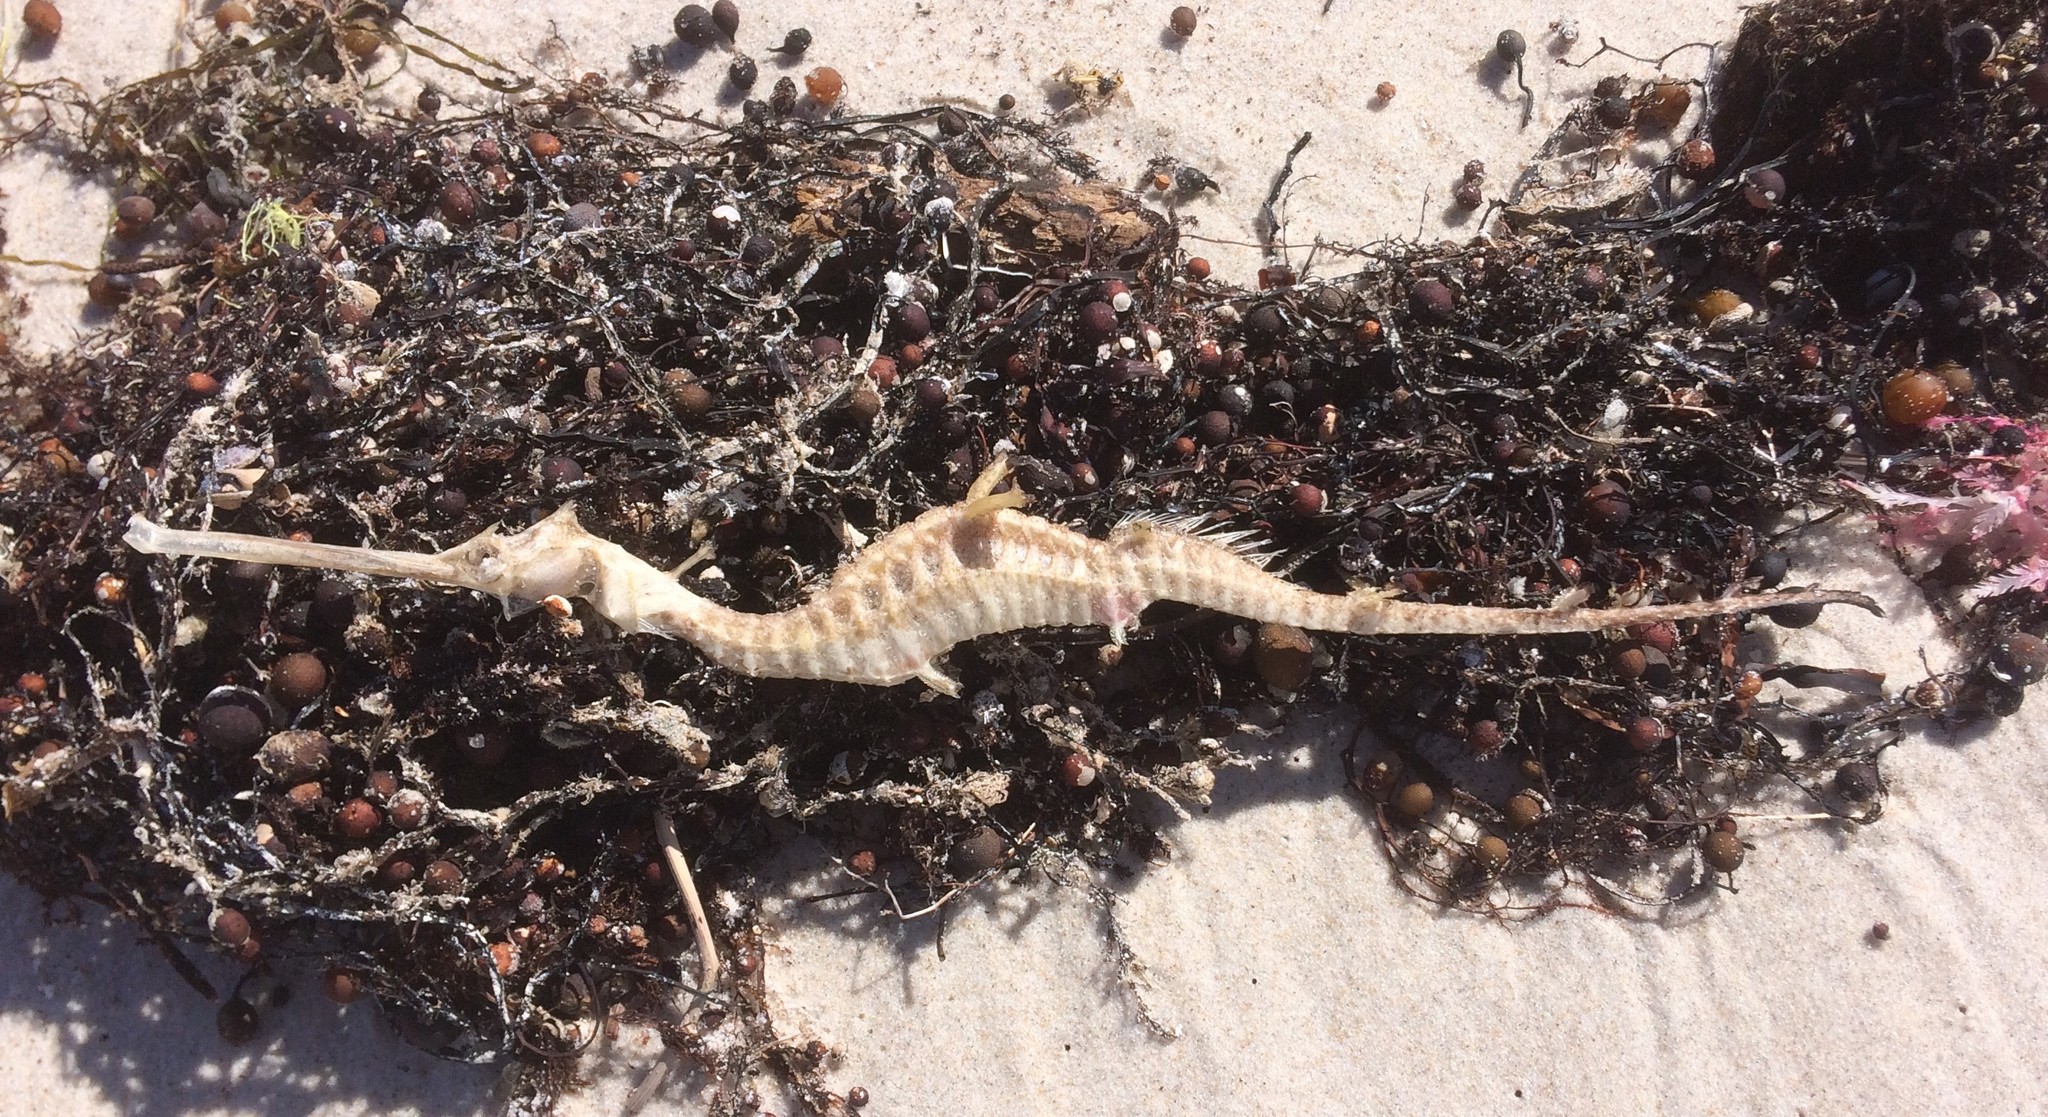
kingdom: Animalia
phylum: Chordata
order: Syngnathiformes
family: Syngnathidae
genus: Phyllopteryx
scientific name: Phyllopteryx taeniolatus
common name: Common seadragon
